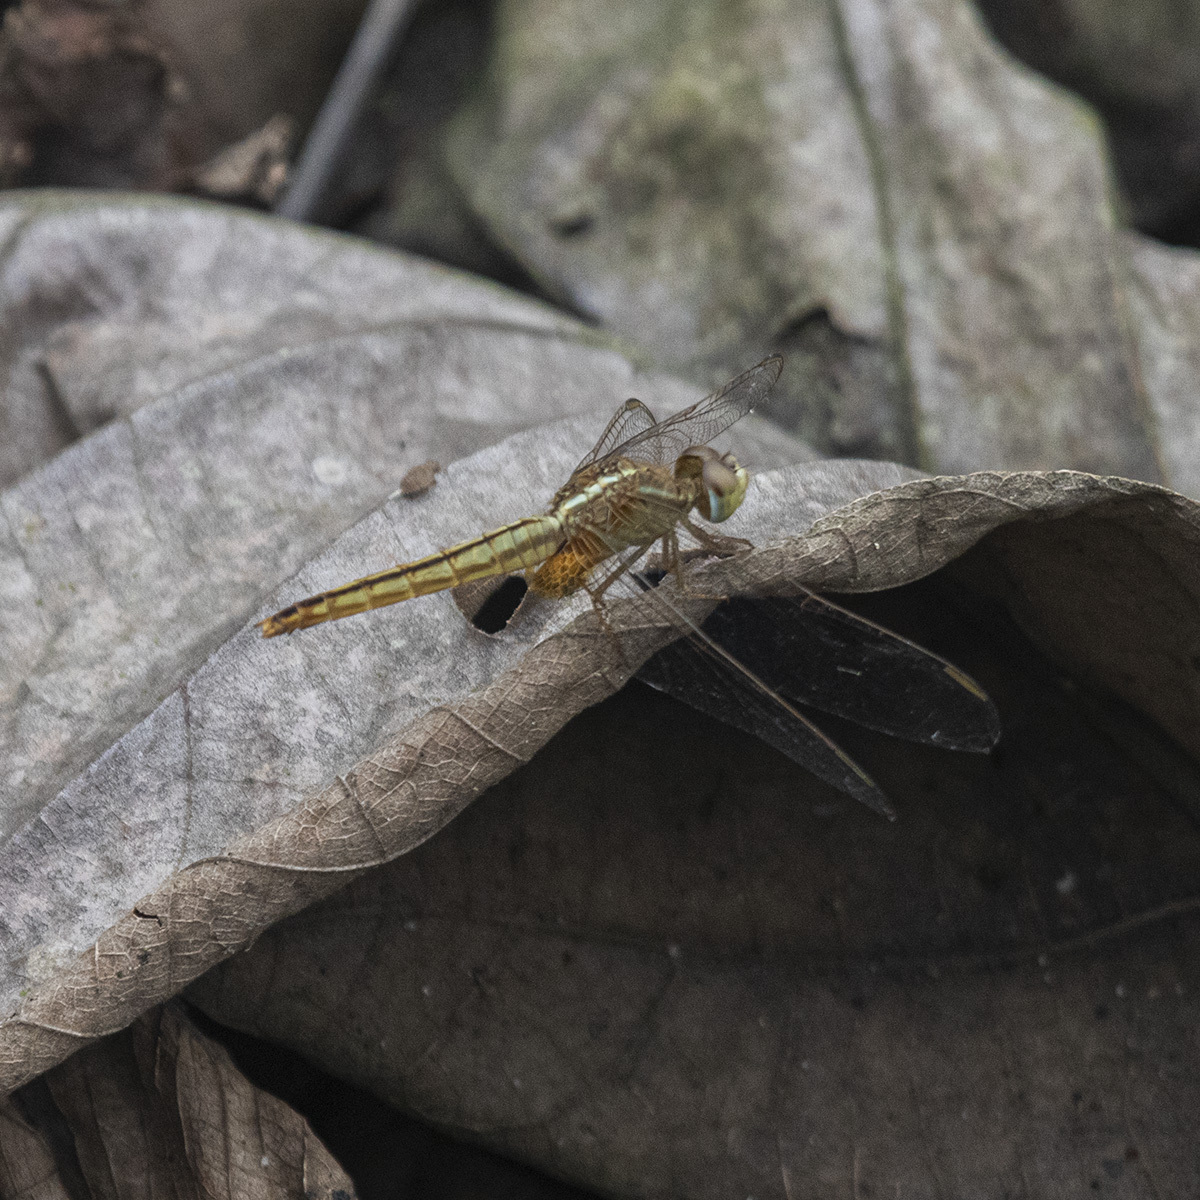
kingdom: Animalia
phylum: Arthropoda
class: Insecta
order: Odonata
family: Libellulidae
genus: Crocothemis
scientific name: Crocothemis servilia
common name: Scarlet skimmer
